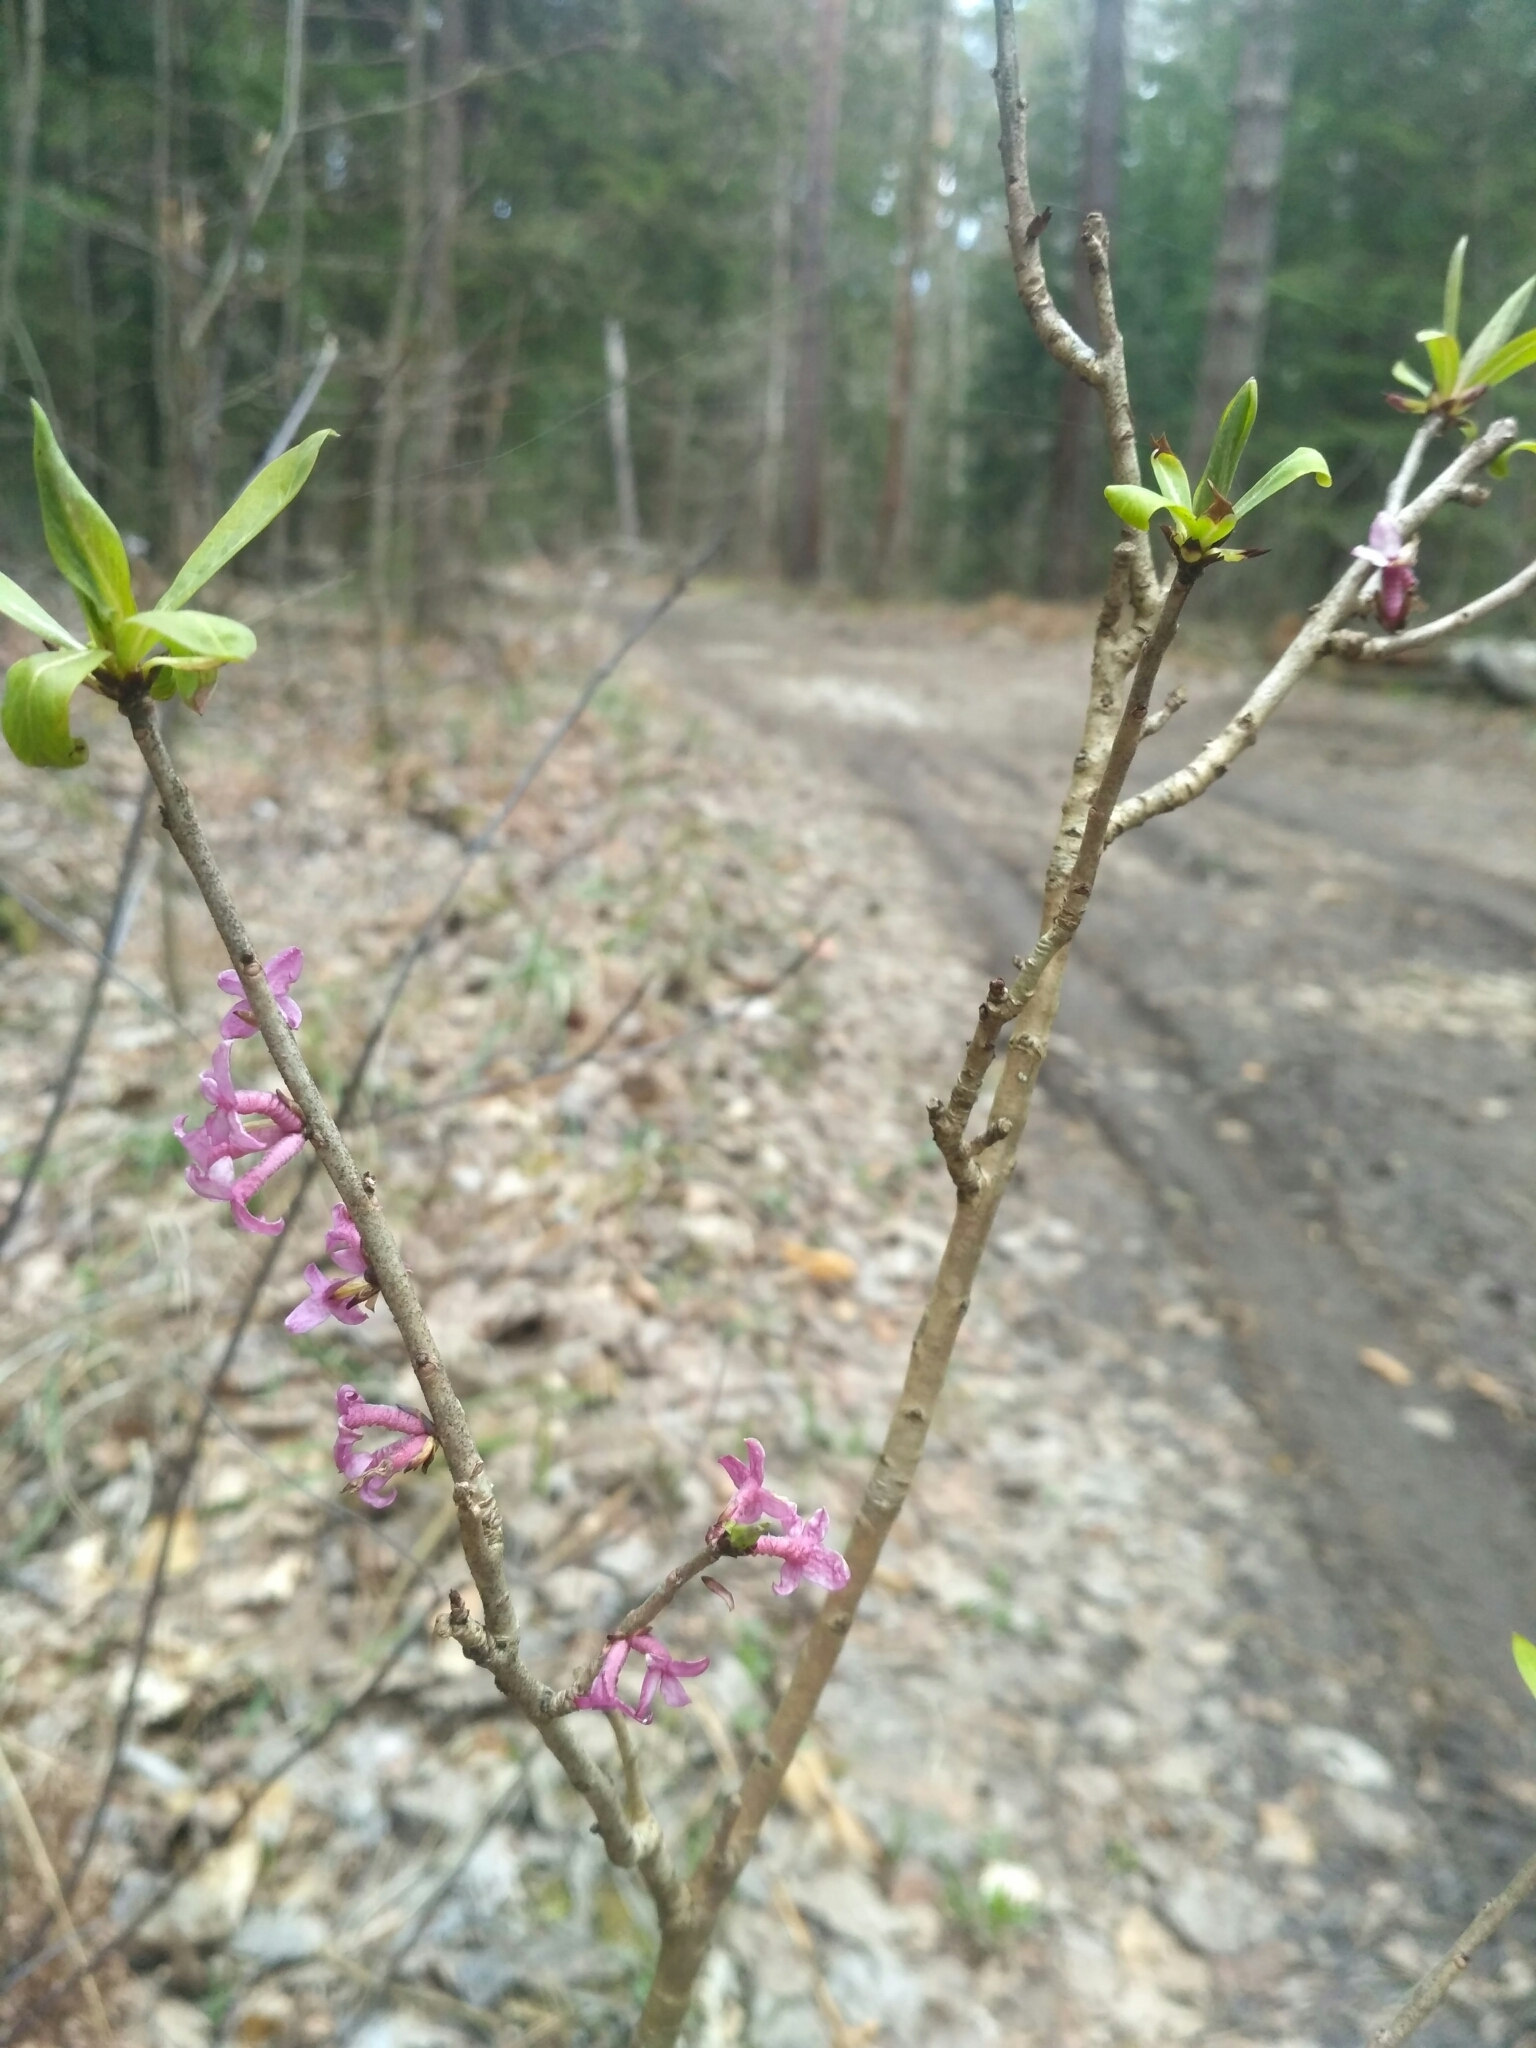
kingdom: Plantae
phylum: Tracheophyta
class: Magnoliopsida
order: Malvales
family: Thymelaeaceae
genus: Daphne
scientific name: Daphne mezereum
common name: Mezereon
